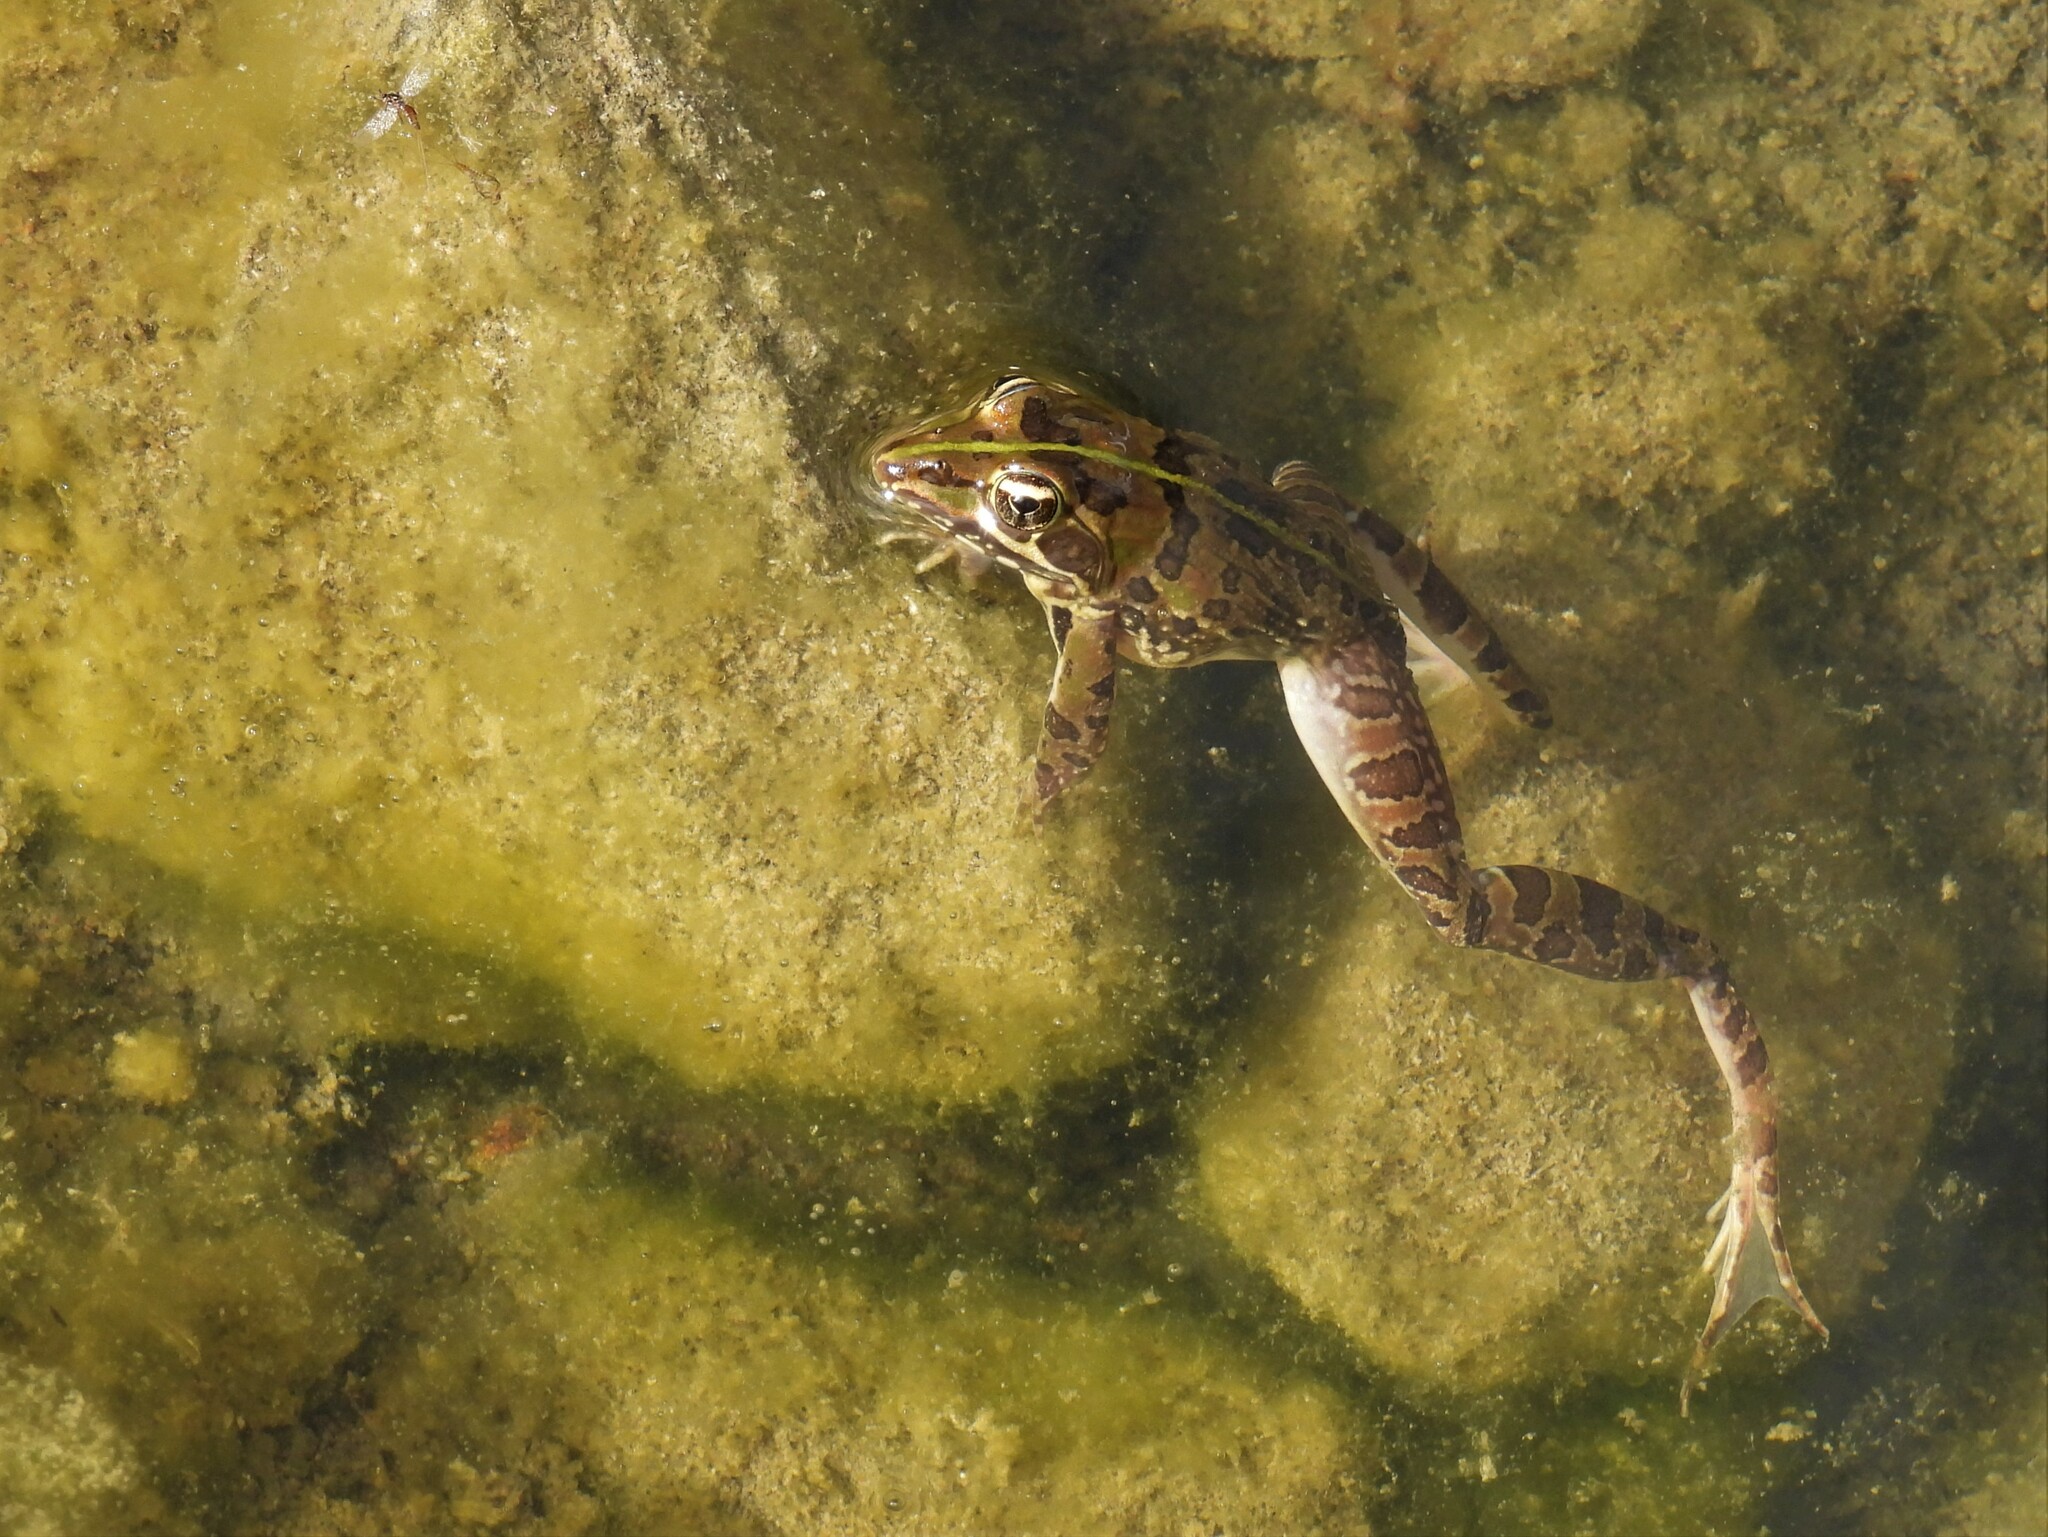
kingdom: Animalia
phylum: Chordata
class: Amphibia
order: Anura
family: Pyxicephalidae
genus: Amietia
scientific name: Amietia delalandii
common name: Delalande's river frog
